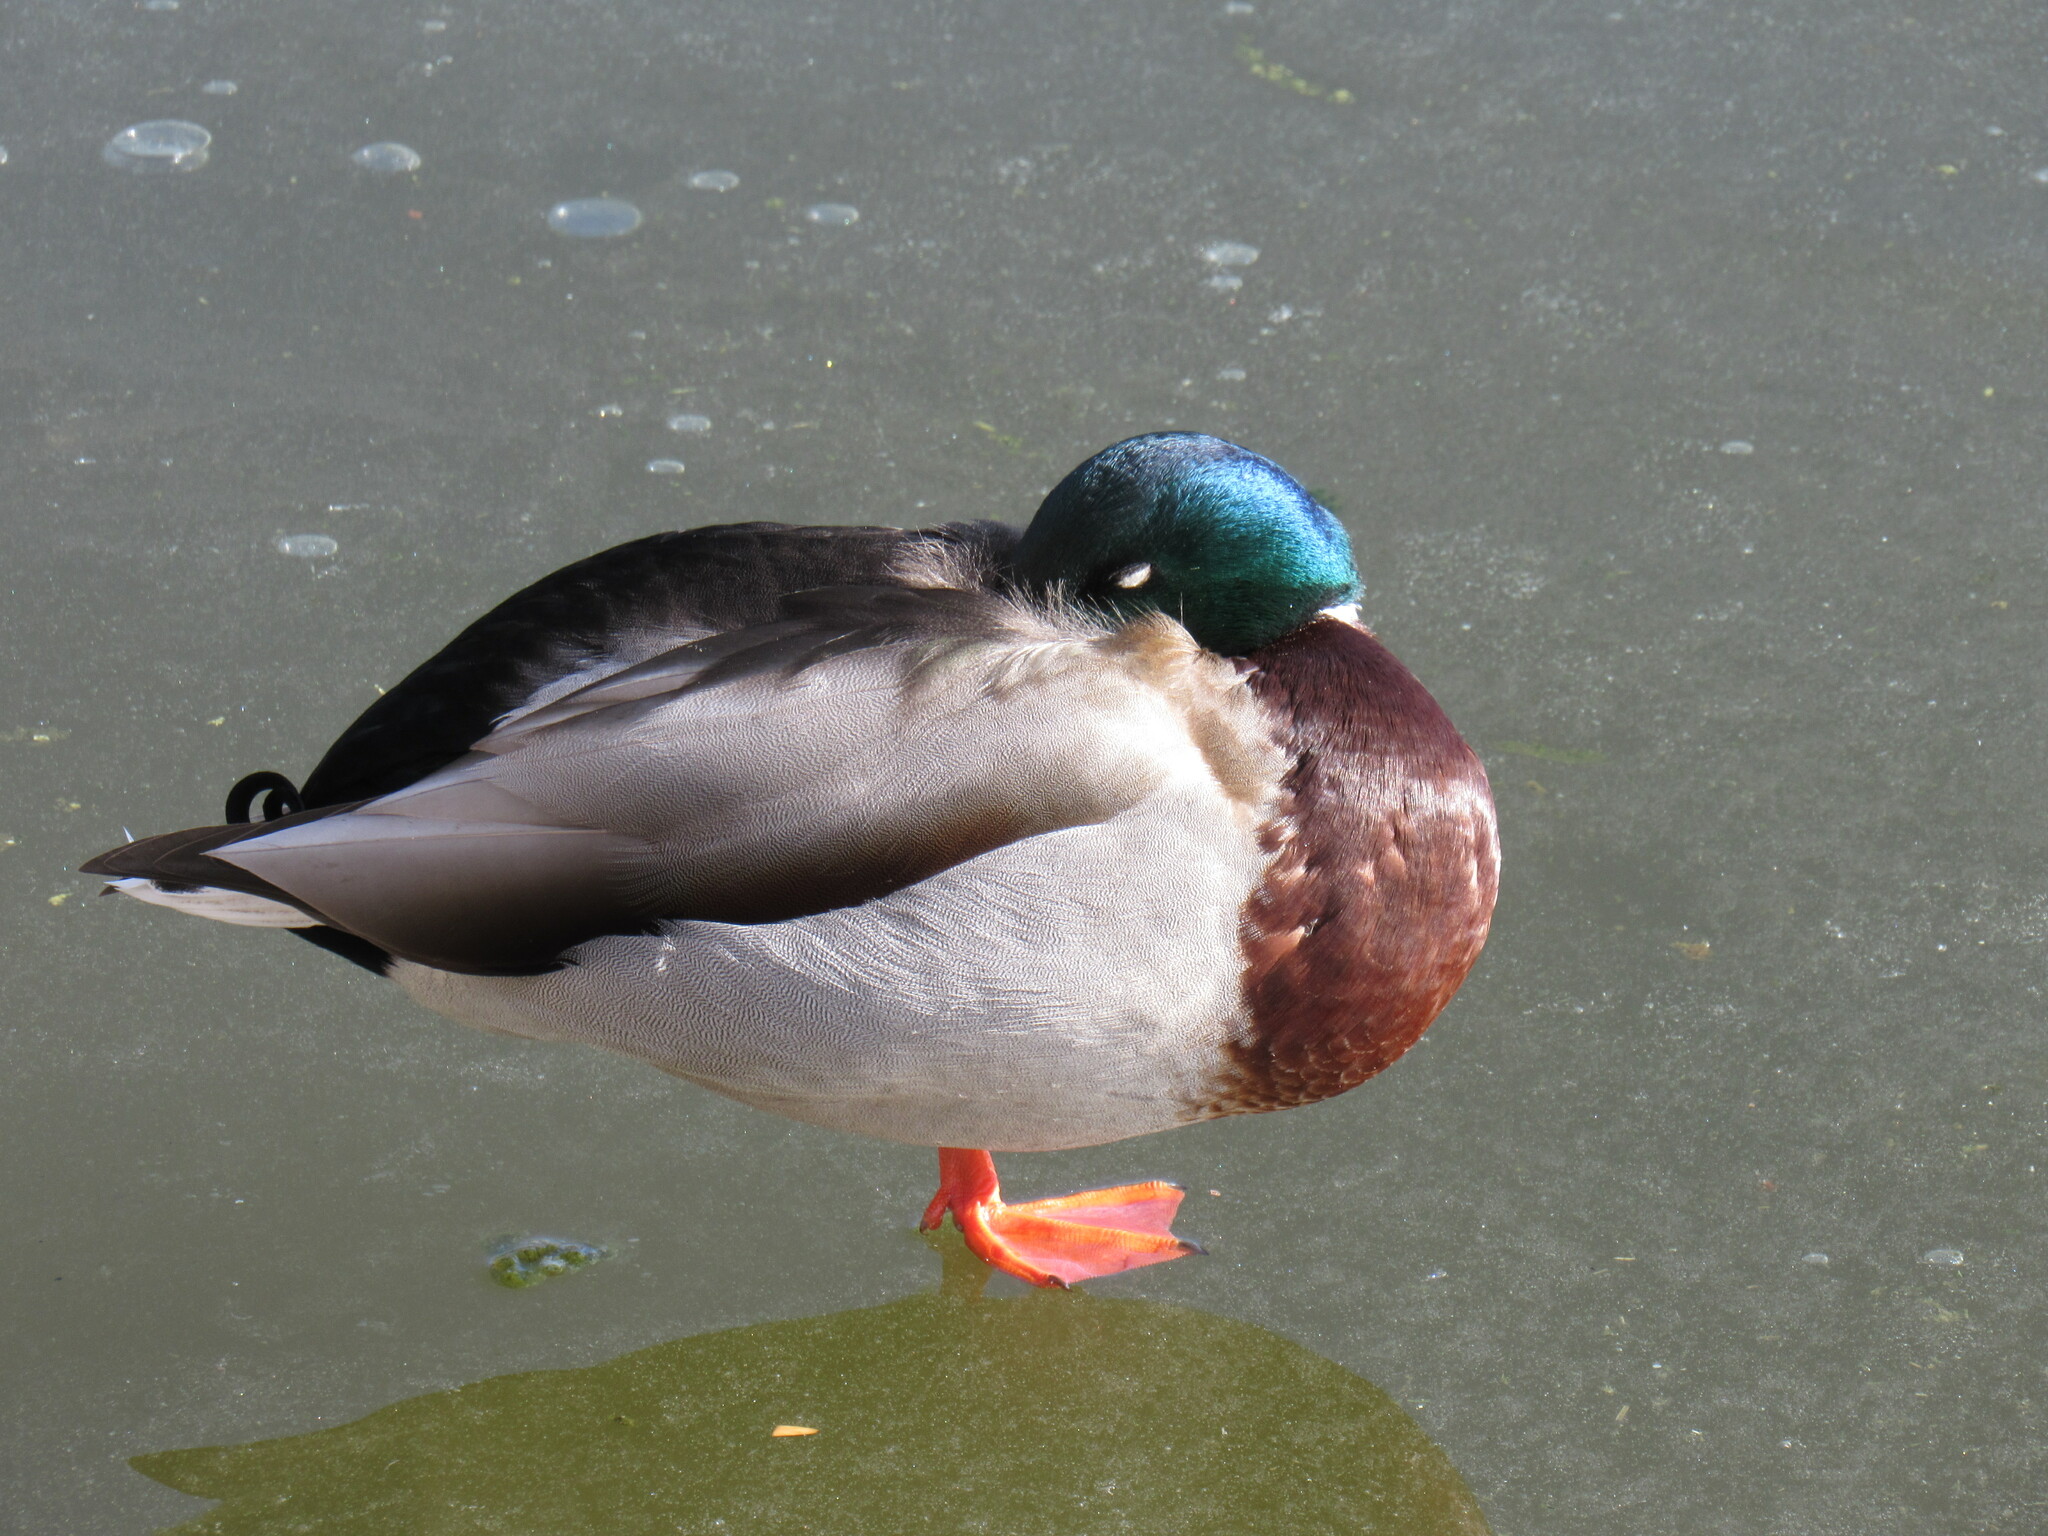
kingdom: Animalia
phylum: Chordata
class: Aves
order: Anseriformes
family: Anatidae
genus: Anas
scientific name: Anas platyrhynchos
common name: Mallard
